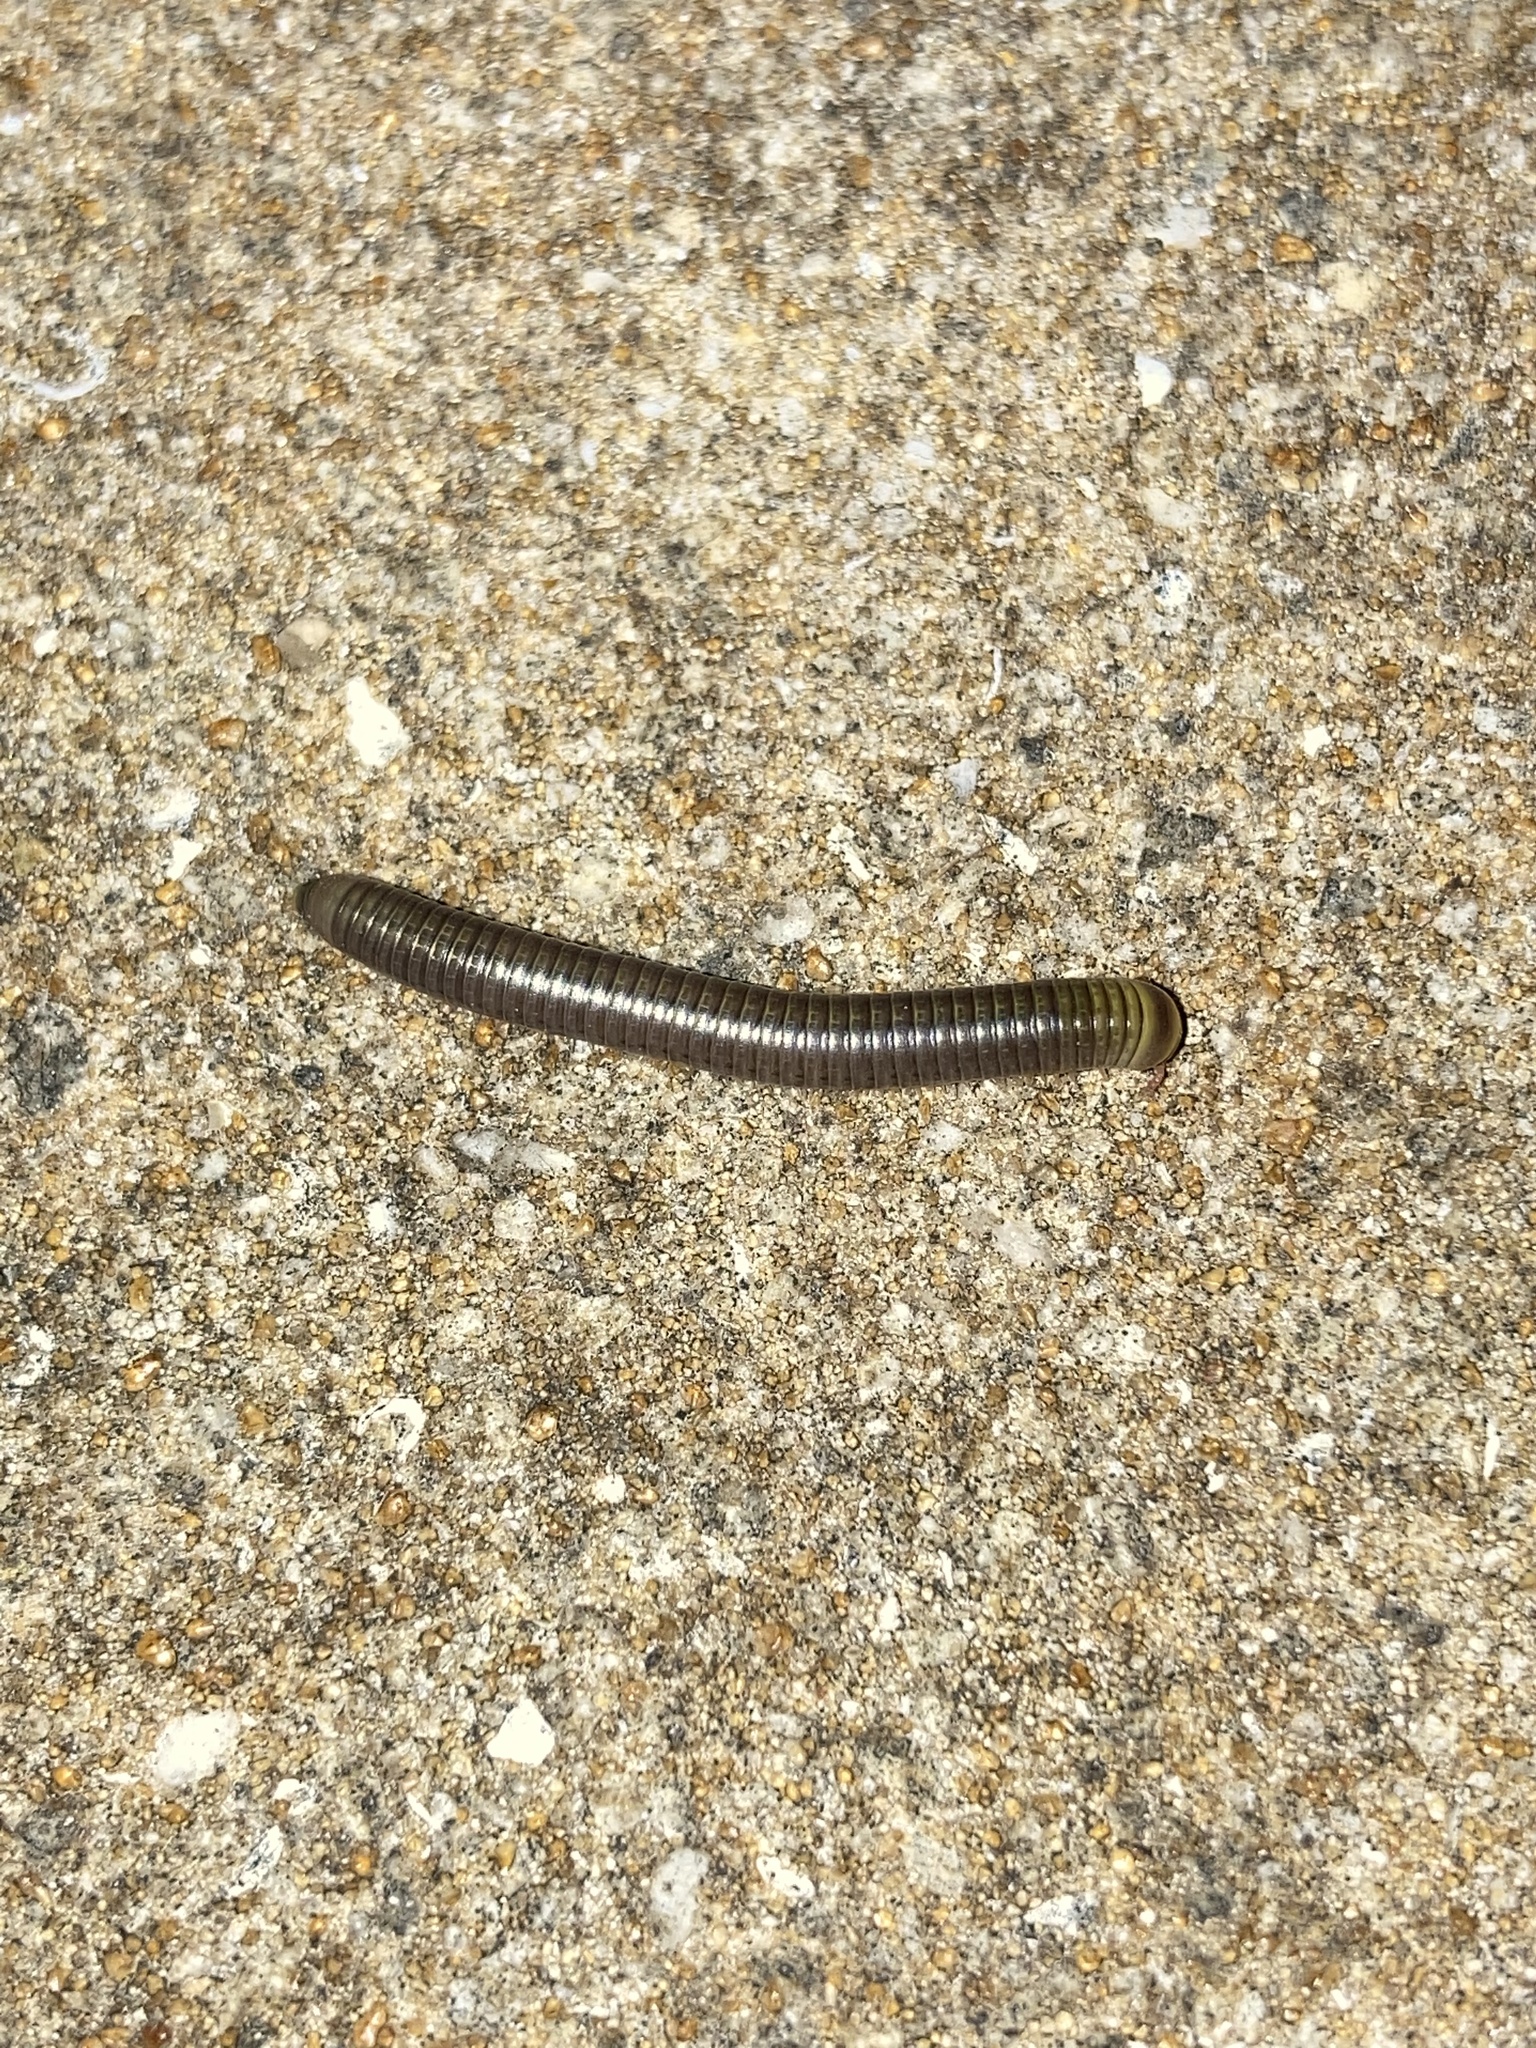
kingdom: Animalia
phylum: Arthropoda
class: Diplopoda
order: Spirobolida
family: Rhinocricidae
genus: Anadenobolus
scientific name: Anadenobolus monilicornis
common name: Caribbean millipede
